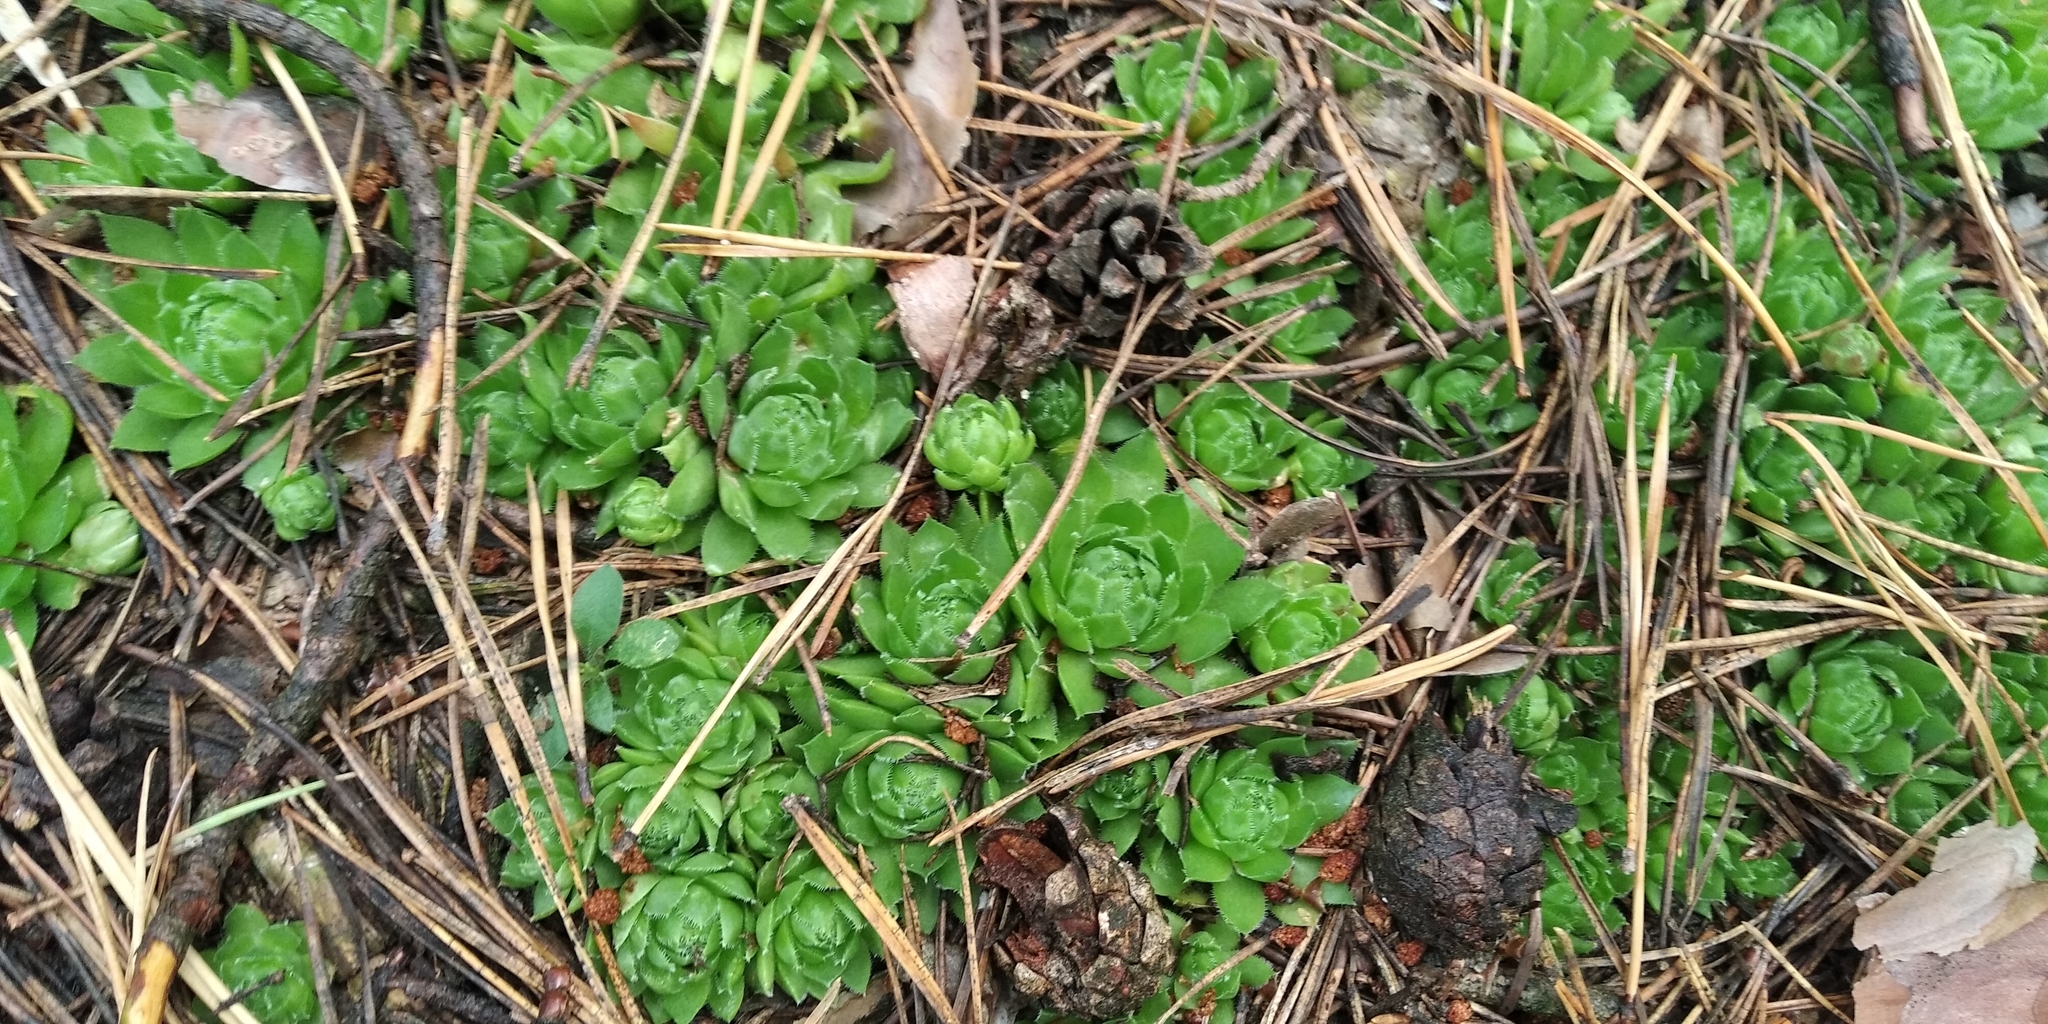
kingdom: Plantae
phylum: Tracheophyta
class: Magnoliopsida
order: Saxifragales
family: Crassulaceae
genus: Sempervivum
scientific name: Sempervivum globiferum
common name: Rolling hen-and-chicks
